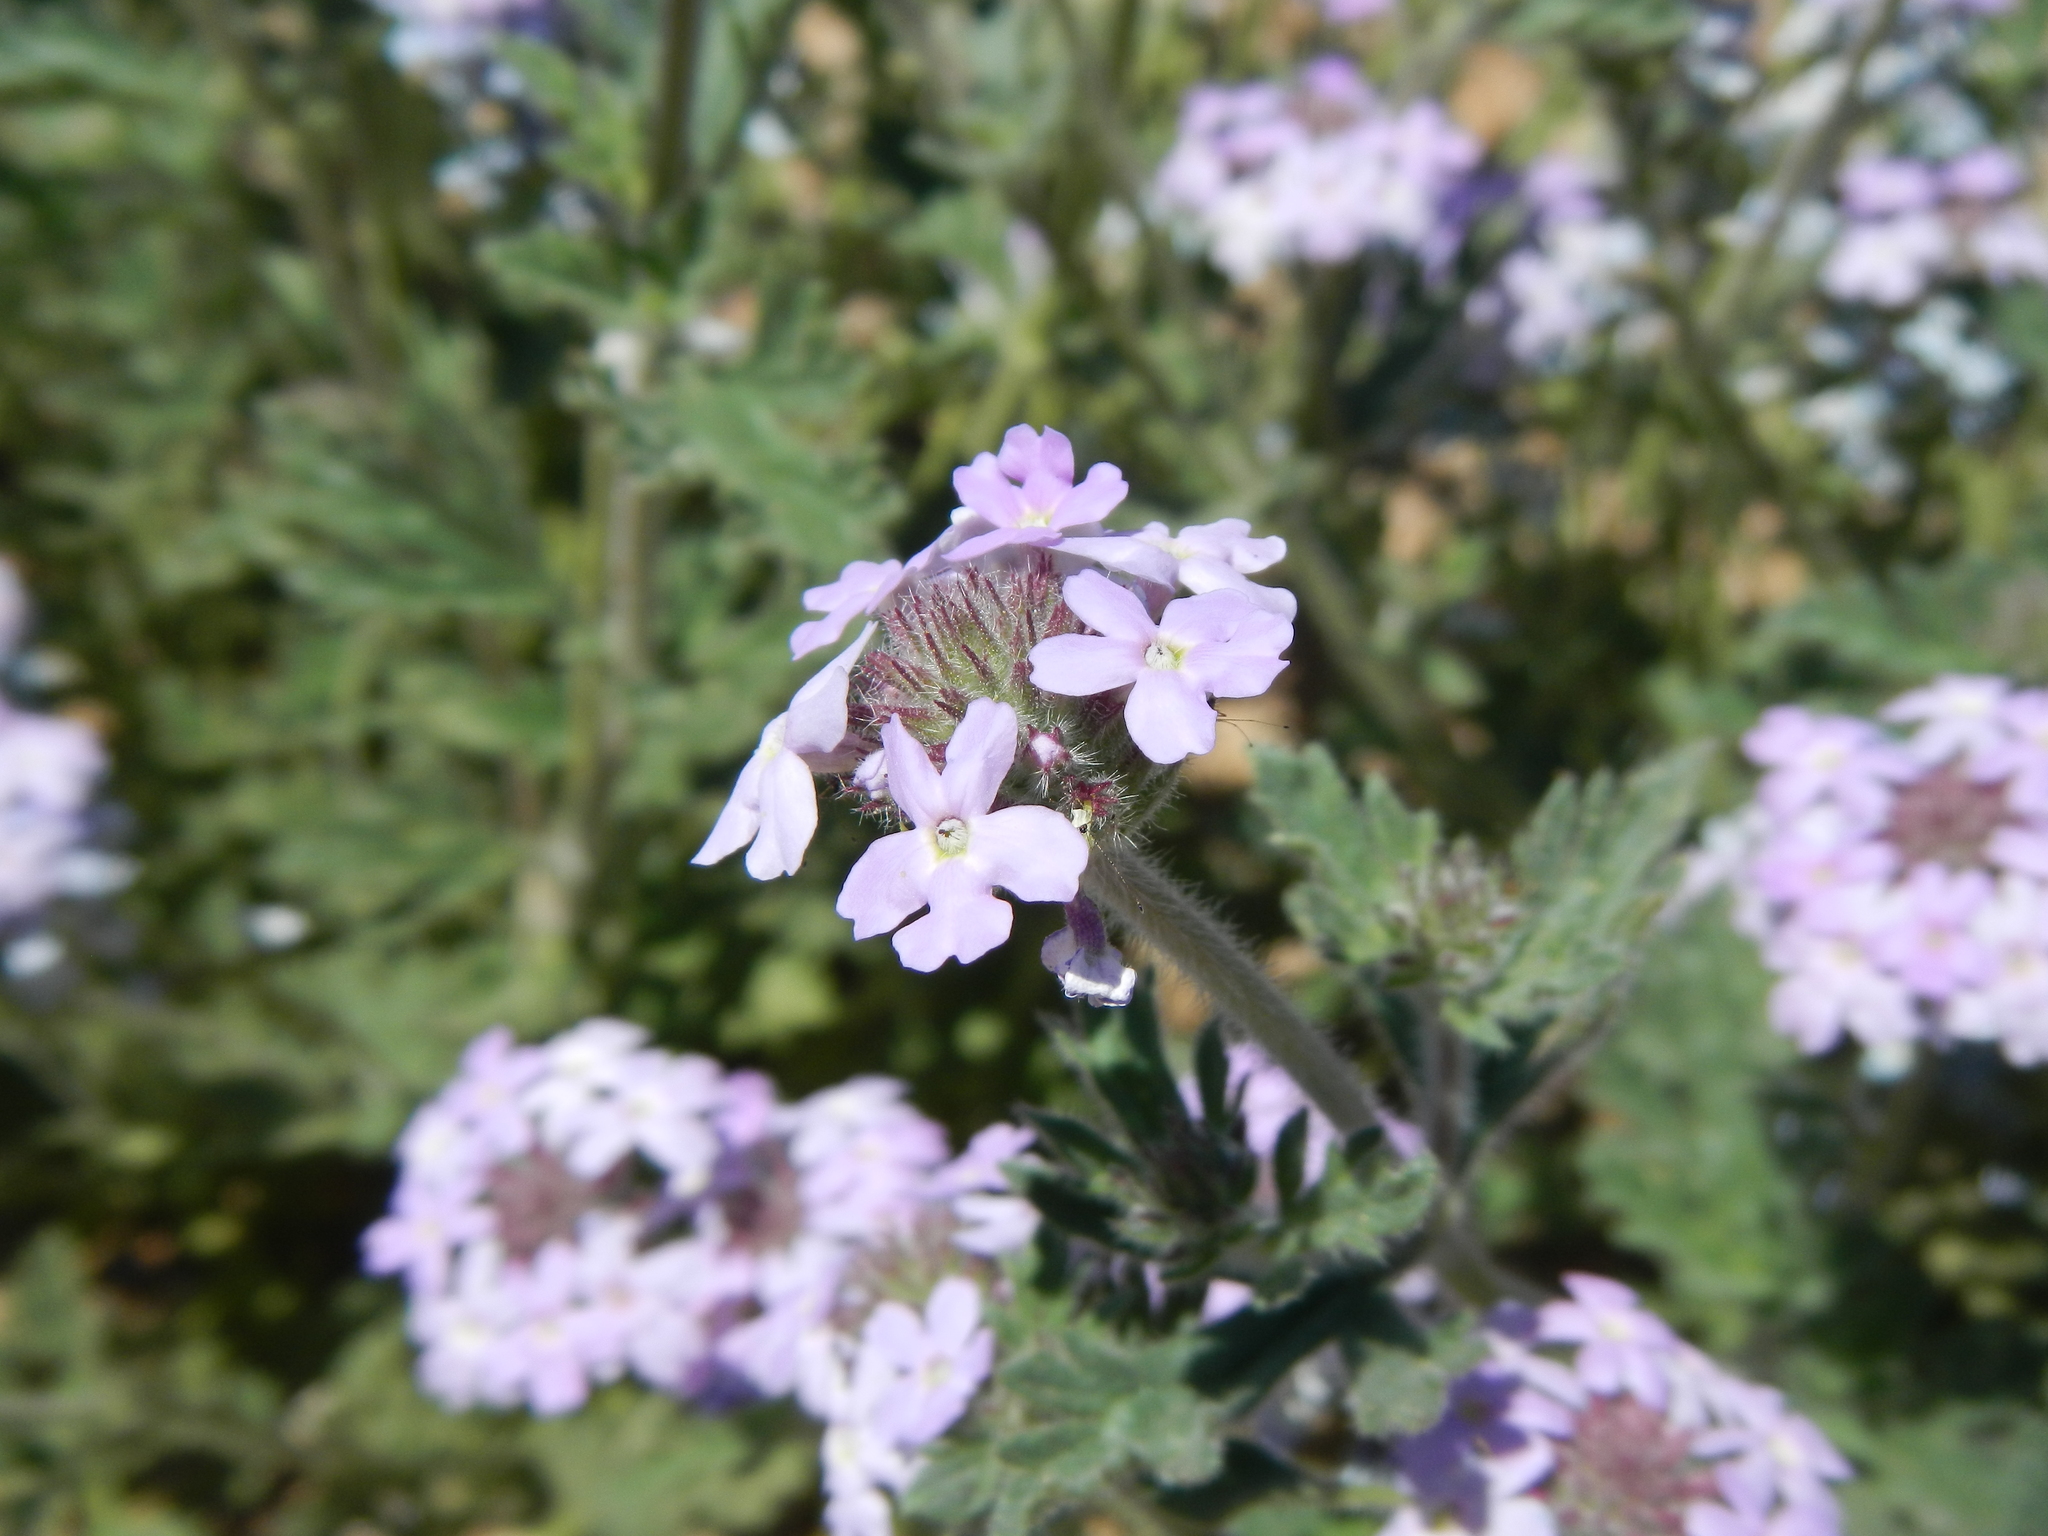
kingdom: Plantae
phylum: Tracheophyta
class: Magnoliopsida
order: Lamiales
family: Verbenaceae
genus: Verbena
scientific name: Verbena gooddingii
